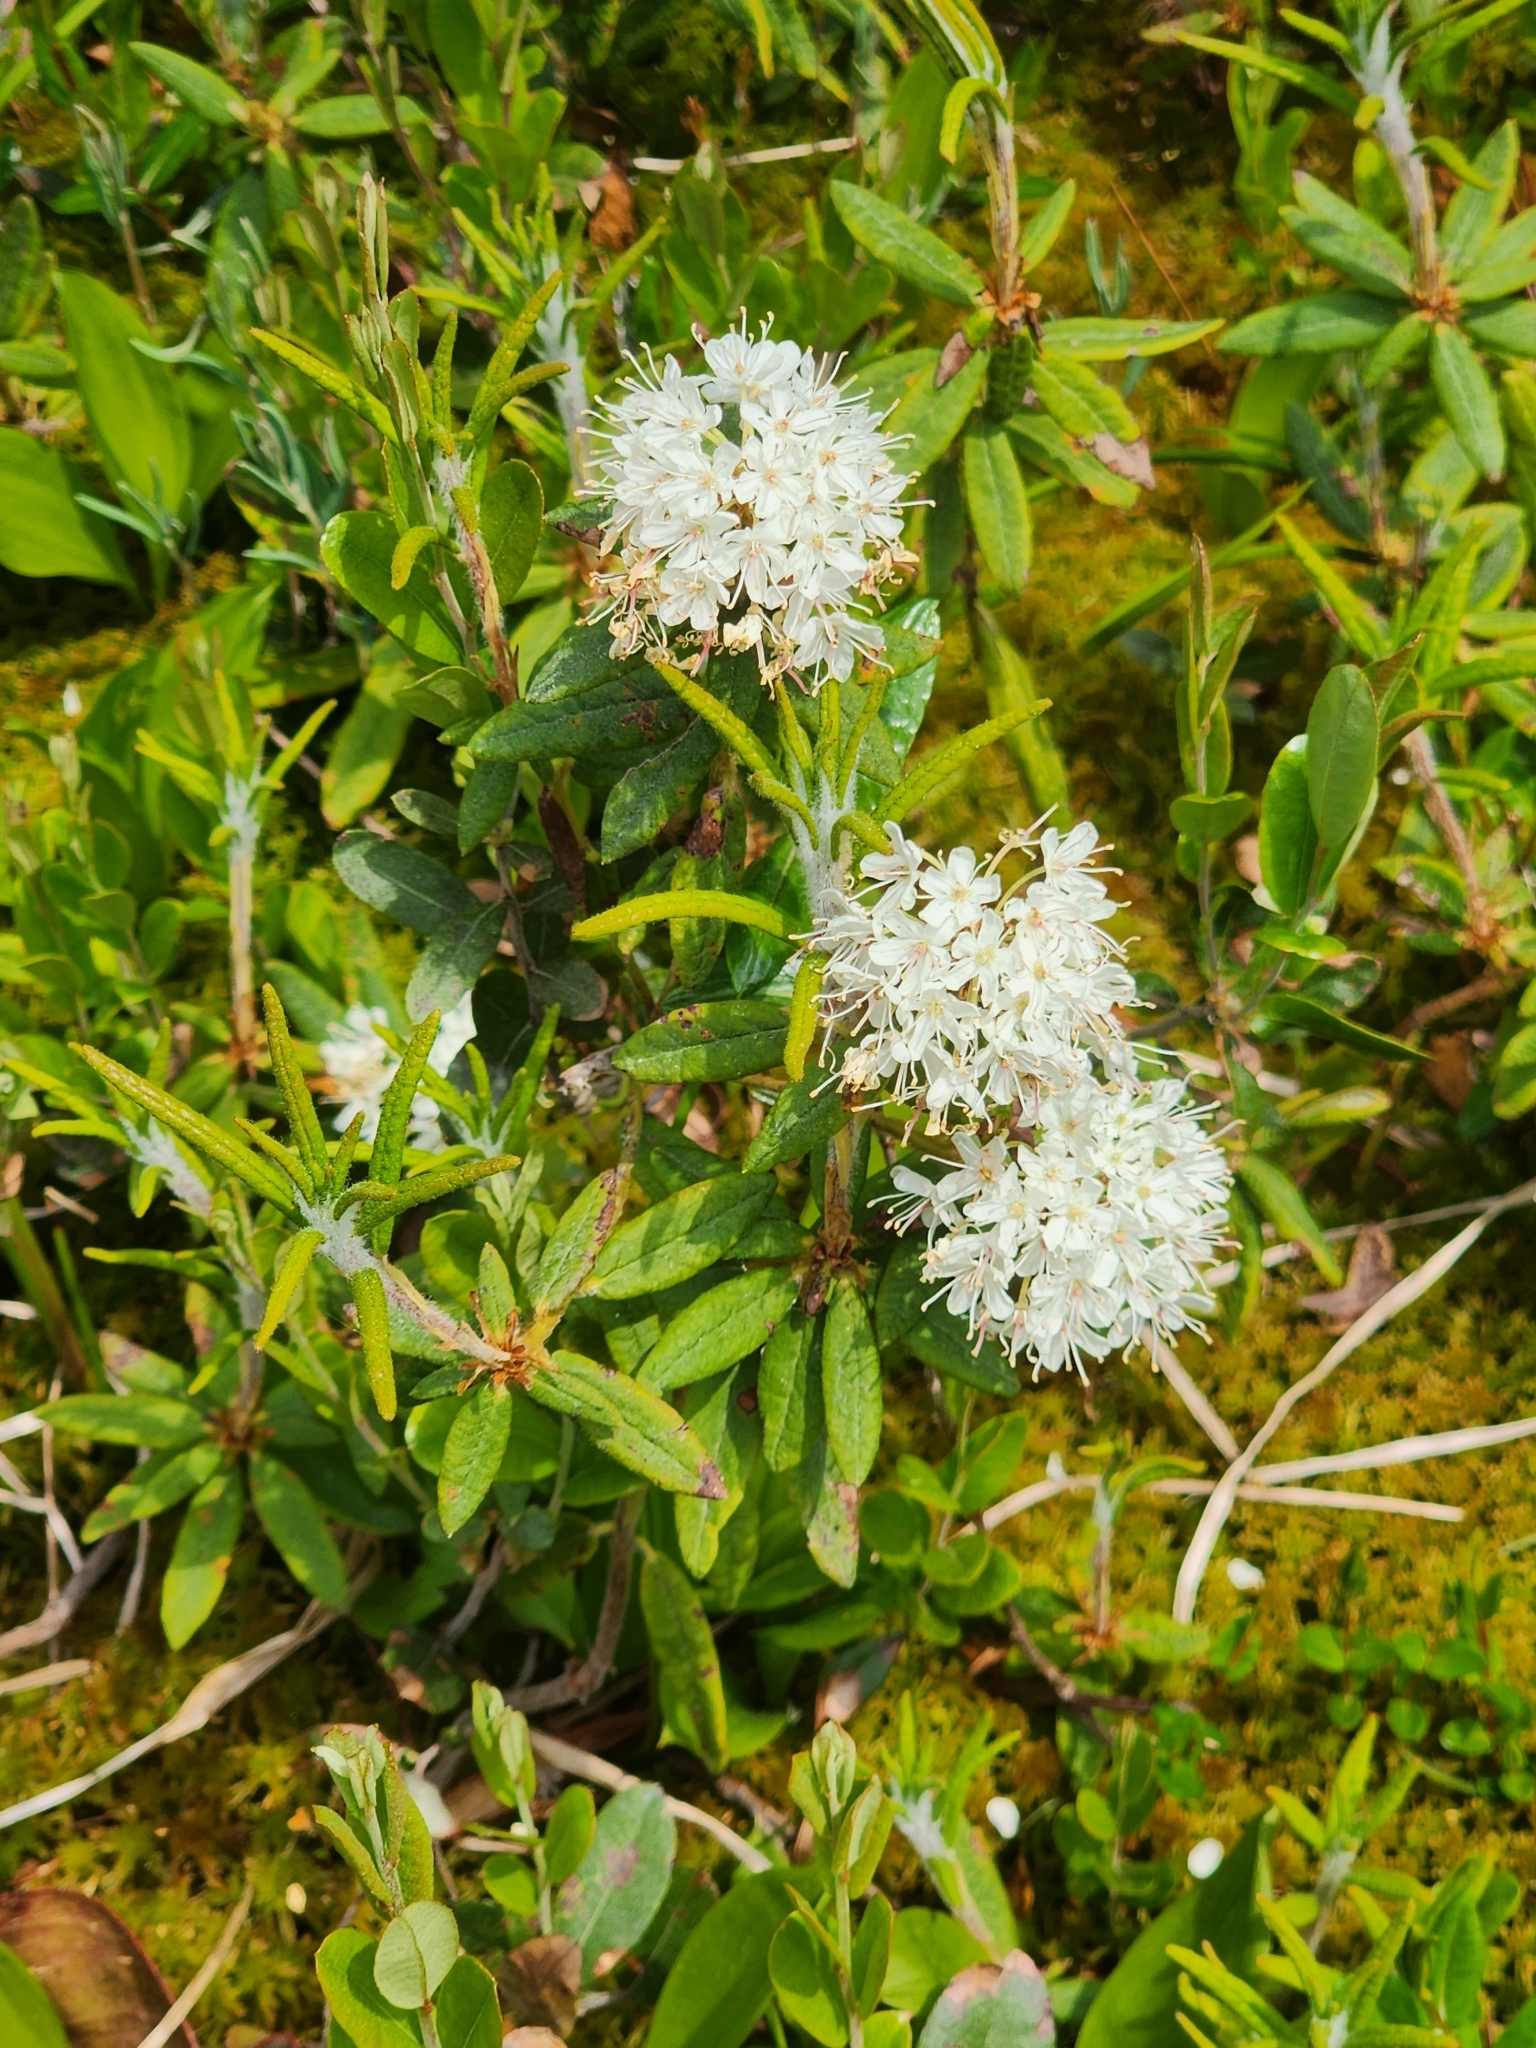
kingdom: Plantae
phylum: Tracheophyta
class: Magnoliopsida
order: Ericales
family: Ericaceae
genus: Rhododendron
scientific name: Rhododendron groenlandicum
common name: Bog labrador tea
